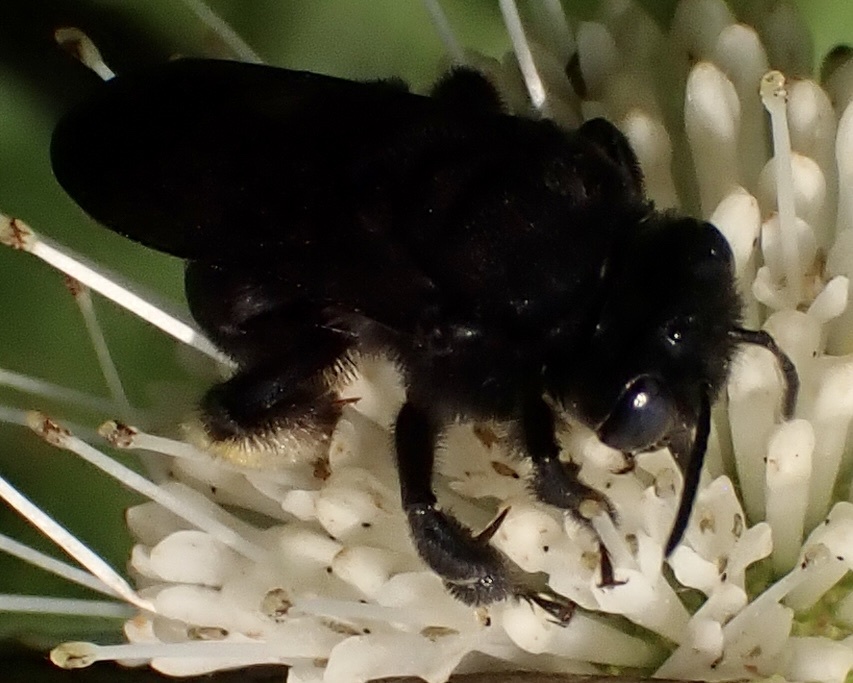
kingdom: Animalia
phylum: Arthropoda
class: Insecta
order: Hymenoptera
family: Apidae
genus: Melissodes
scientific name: Melissodes bimaculatus
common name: Two-spotted long-horned bee
